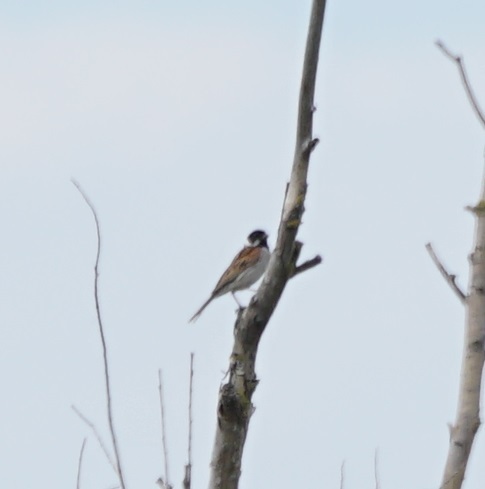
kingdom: Animalia
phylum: Chordata
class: Aves
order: Passeriformes
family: Emberizidae
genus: Emberiza
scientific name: Emberiza schoeniclus
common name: Reed bunting
